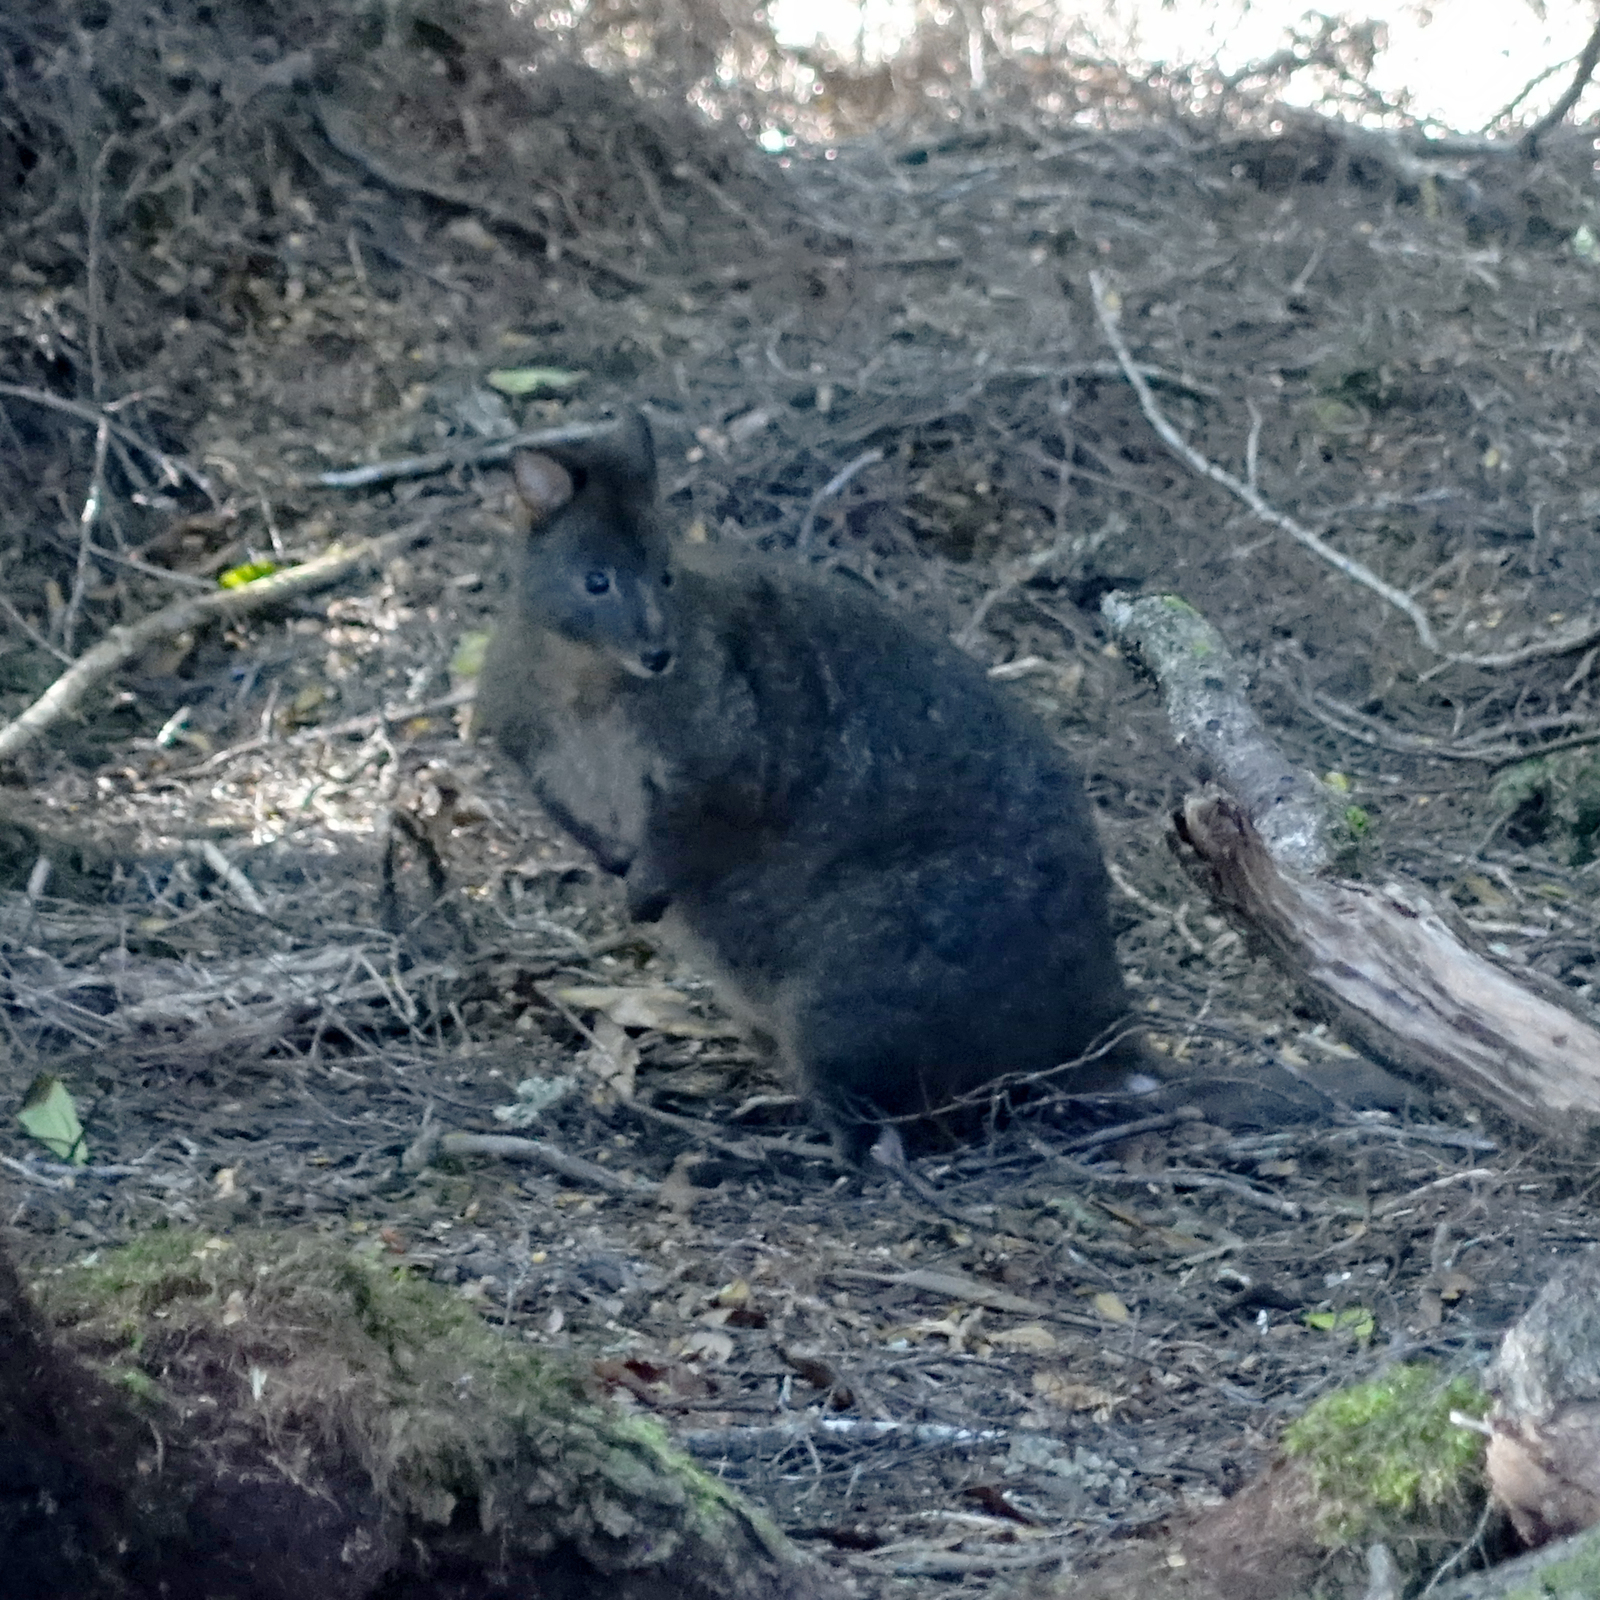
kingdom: Animalia
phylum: Chordata
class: Mammalia
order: Diprotodontia
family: Macropodidae
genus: Thylogale
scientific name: Thylogale billardierii
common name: Tasmanian pademelon
